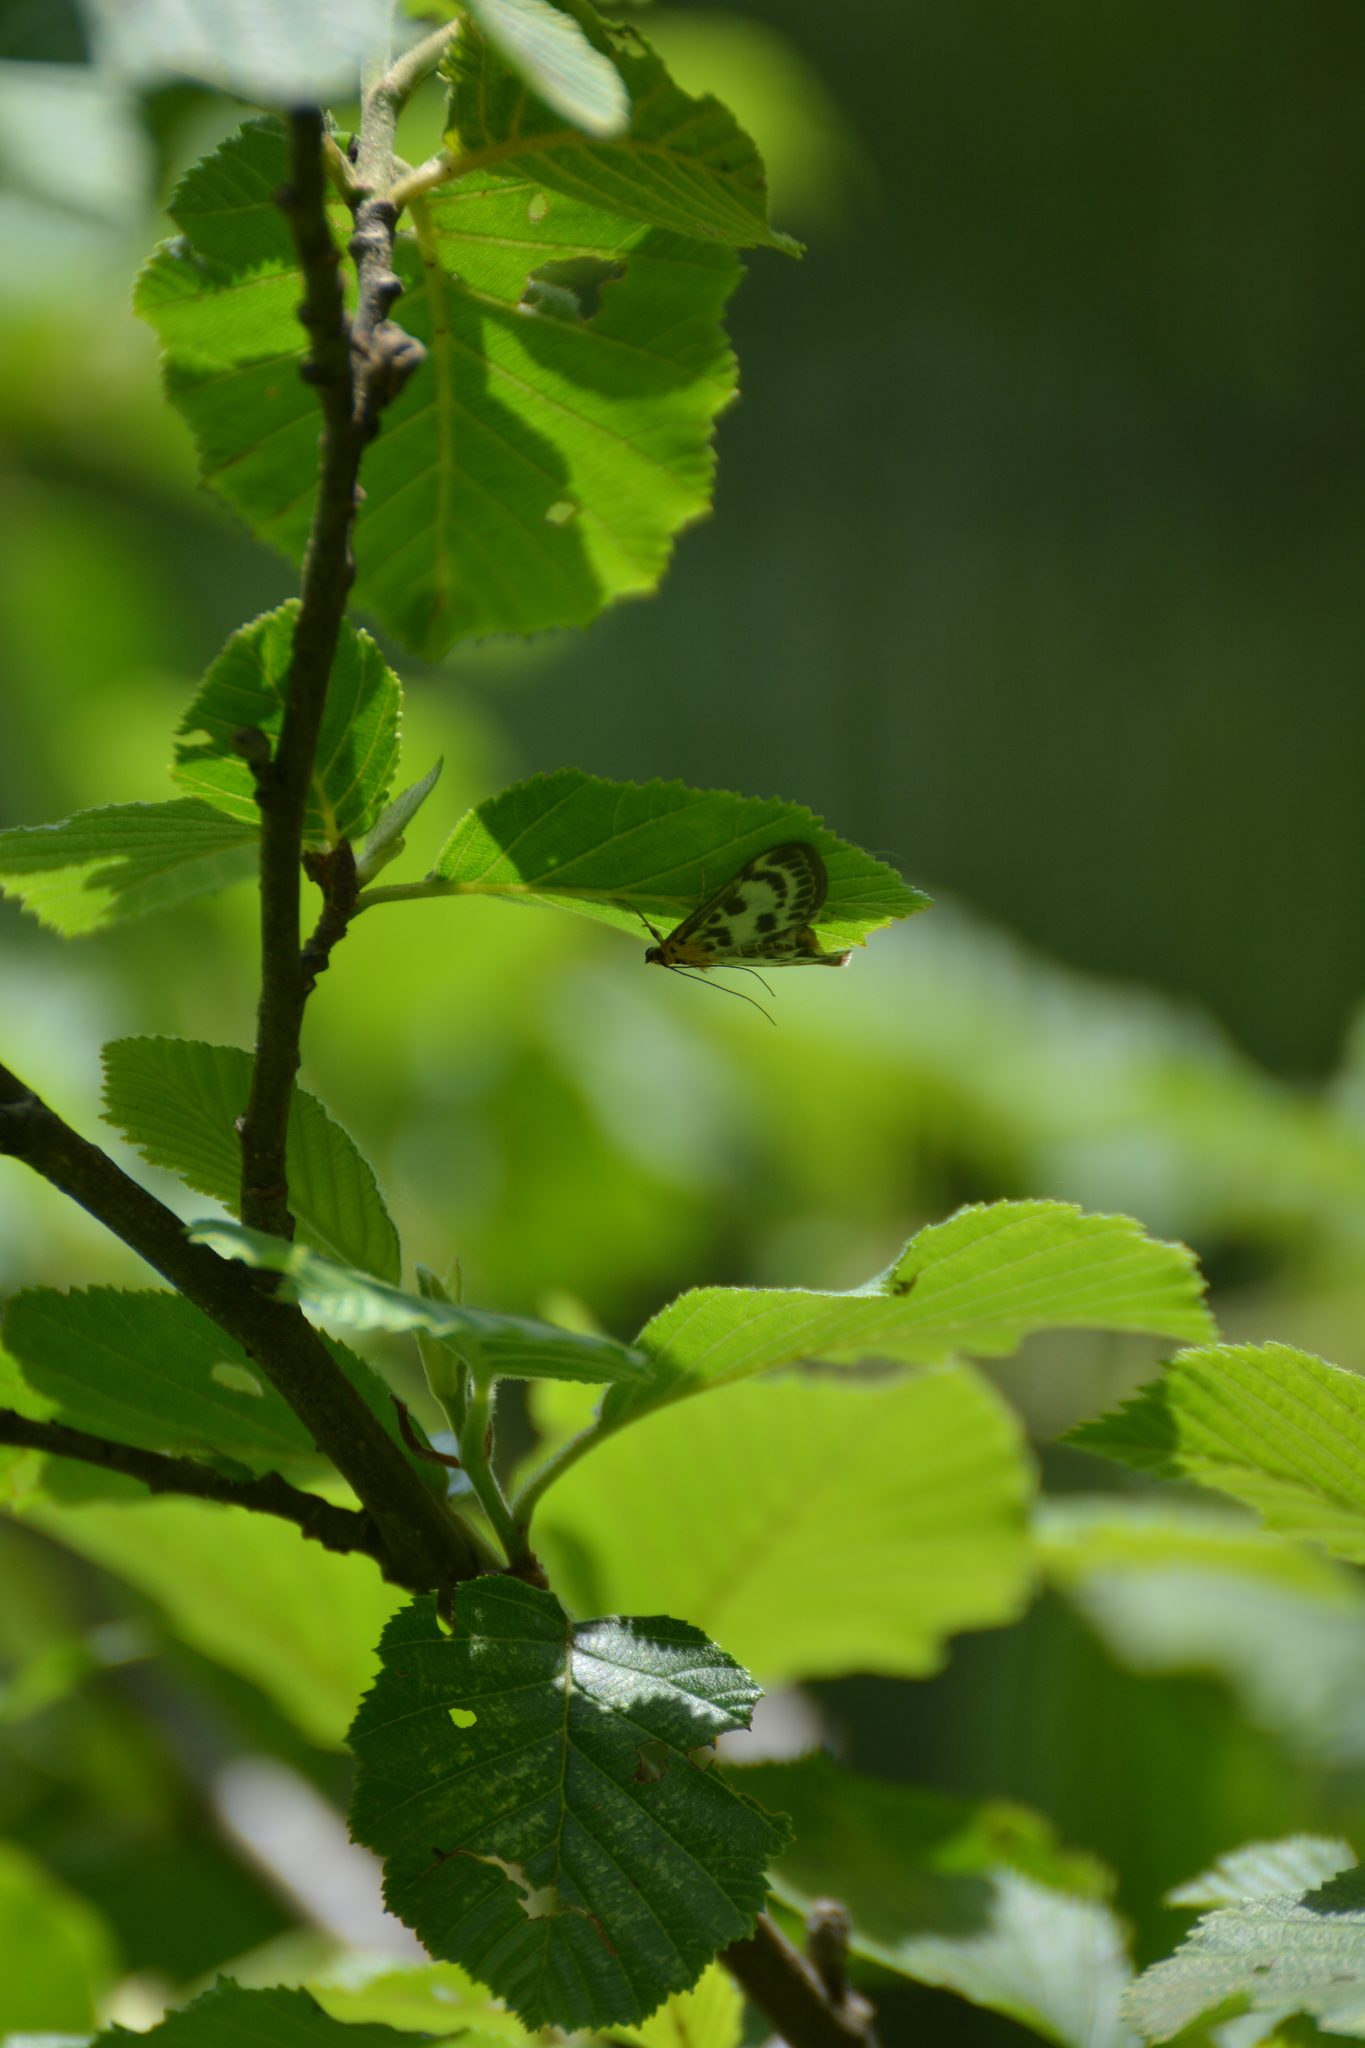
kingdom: Animalia
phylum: Arthropoda
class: Insecta
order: Lepidoptera
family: Crambidae
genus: Anania
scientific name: Anania hortulata
